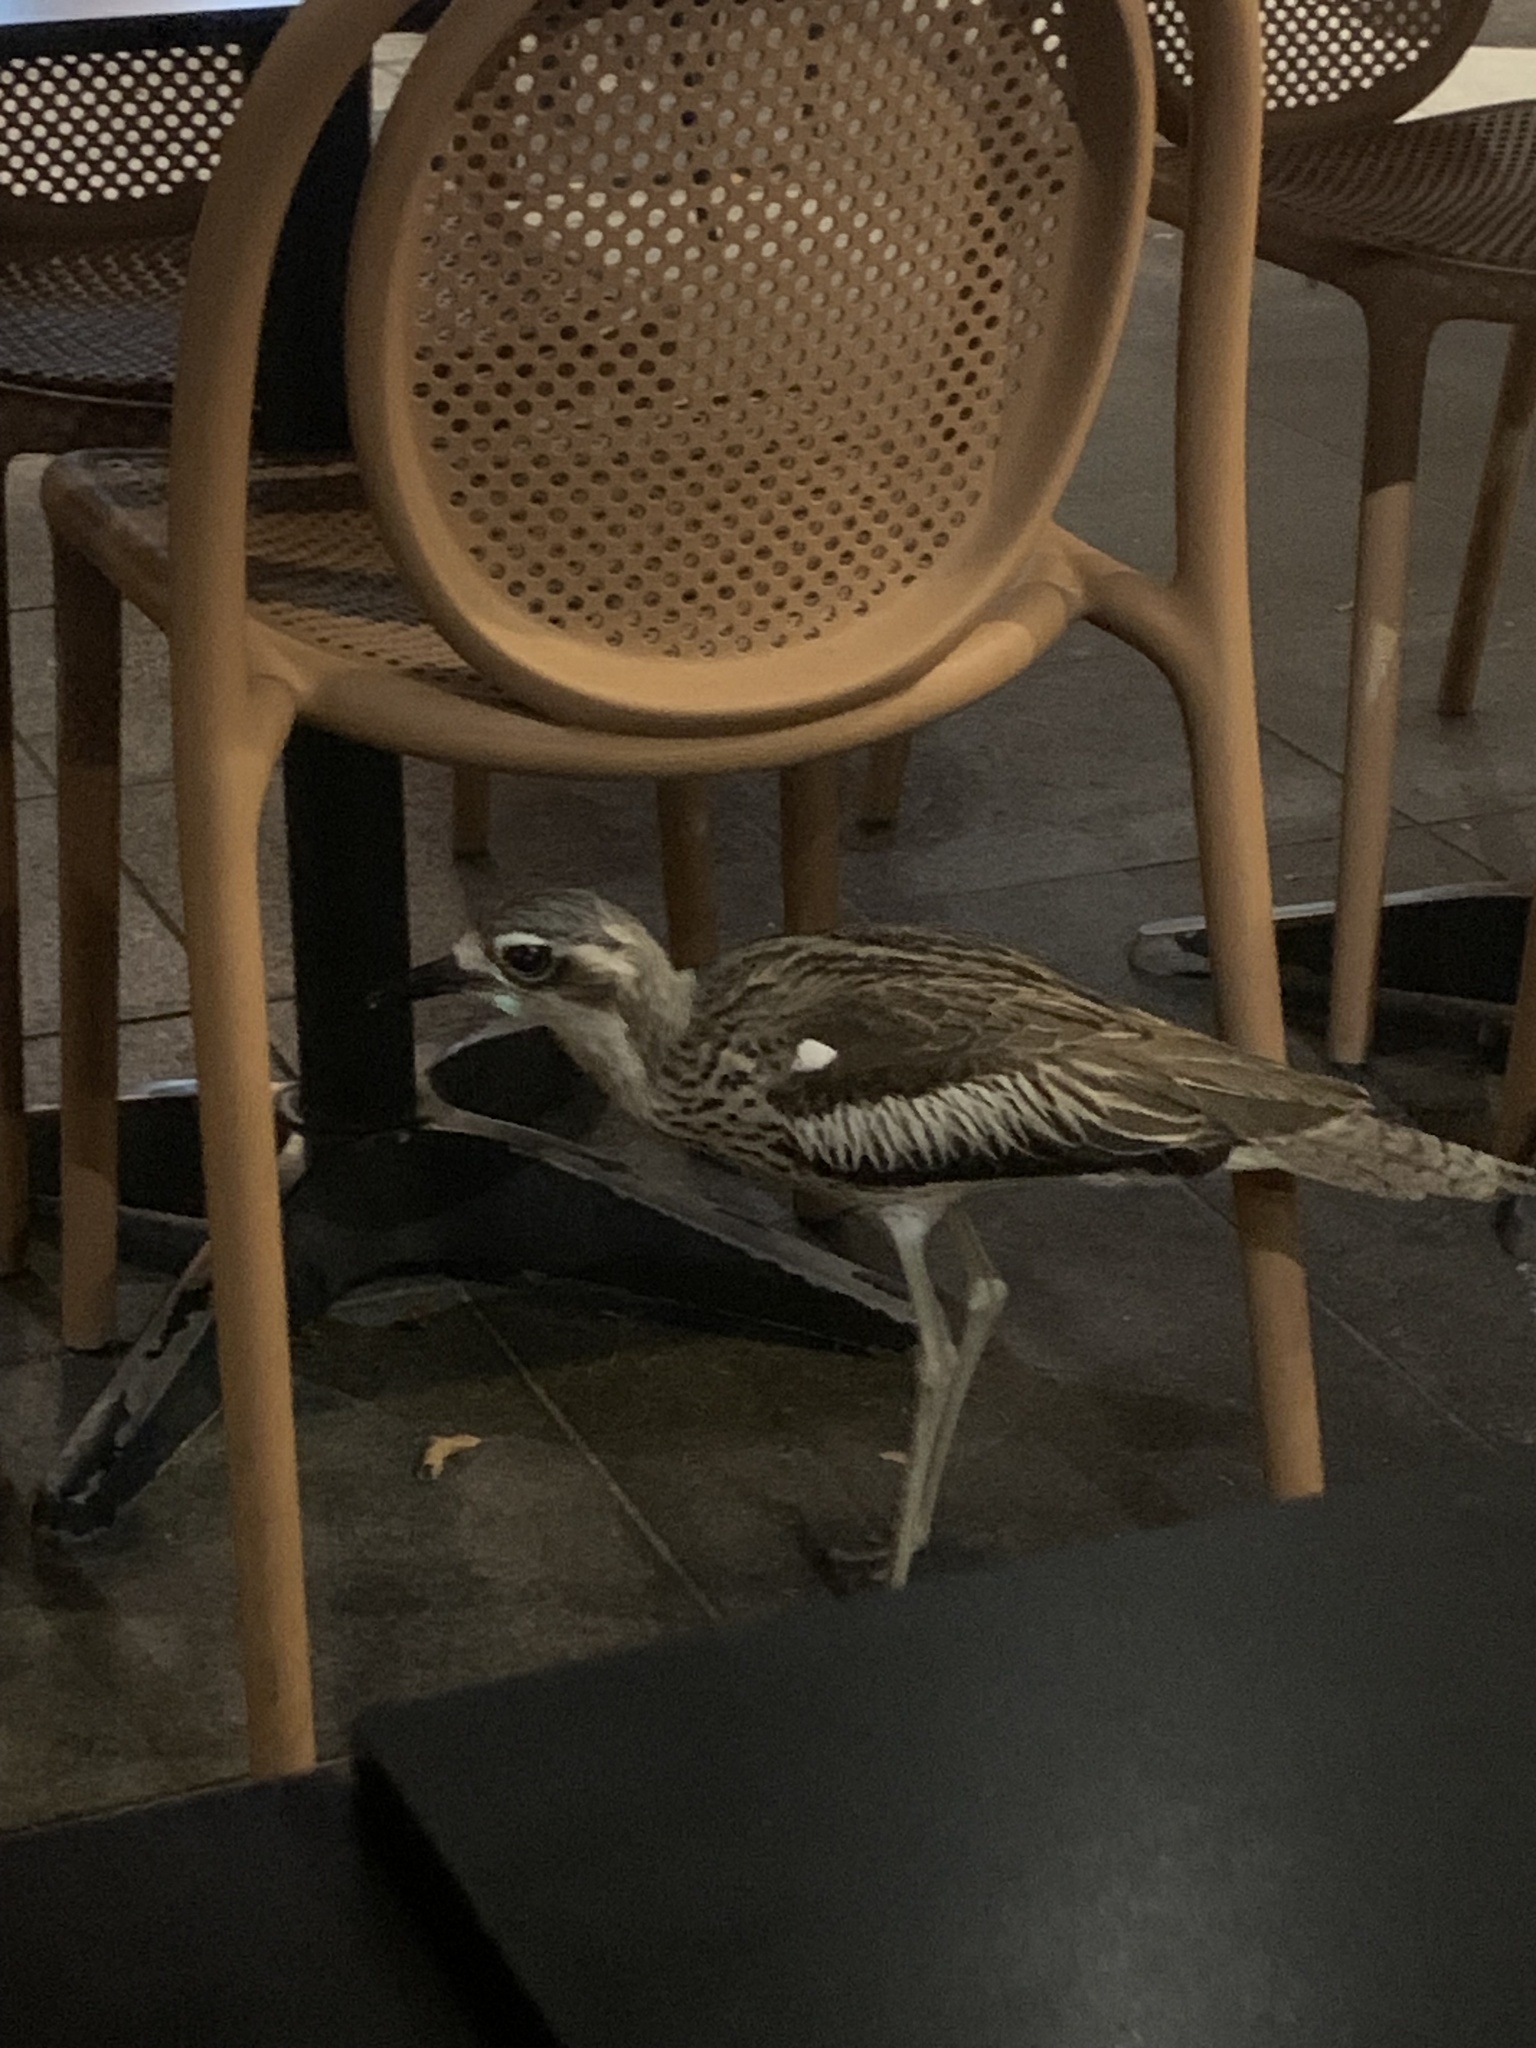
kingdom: Animalia
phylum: Chordata
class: Aves
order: Charadriiformes
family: Burhinidae
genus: Burhinus
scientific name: Burhinus grallarius
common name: Bush stone-curlew
